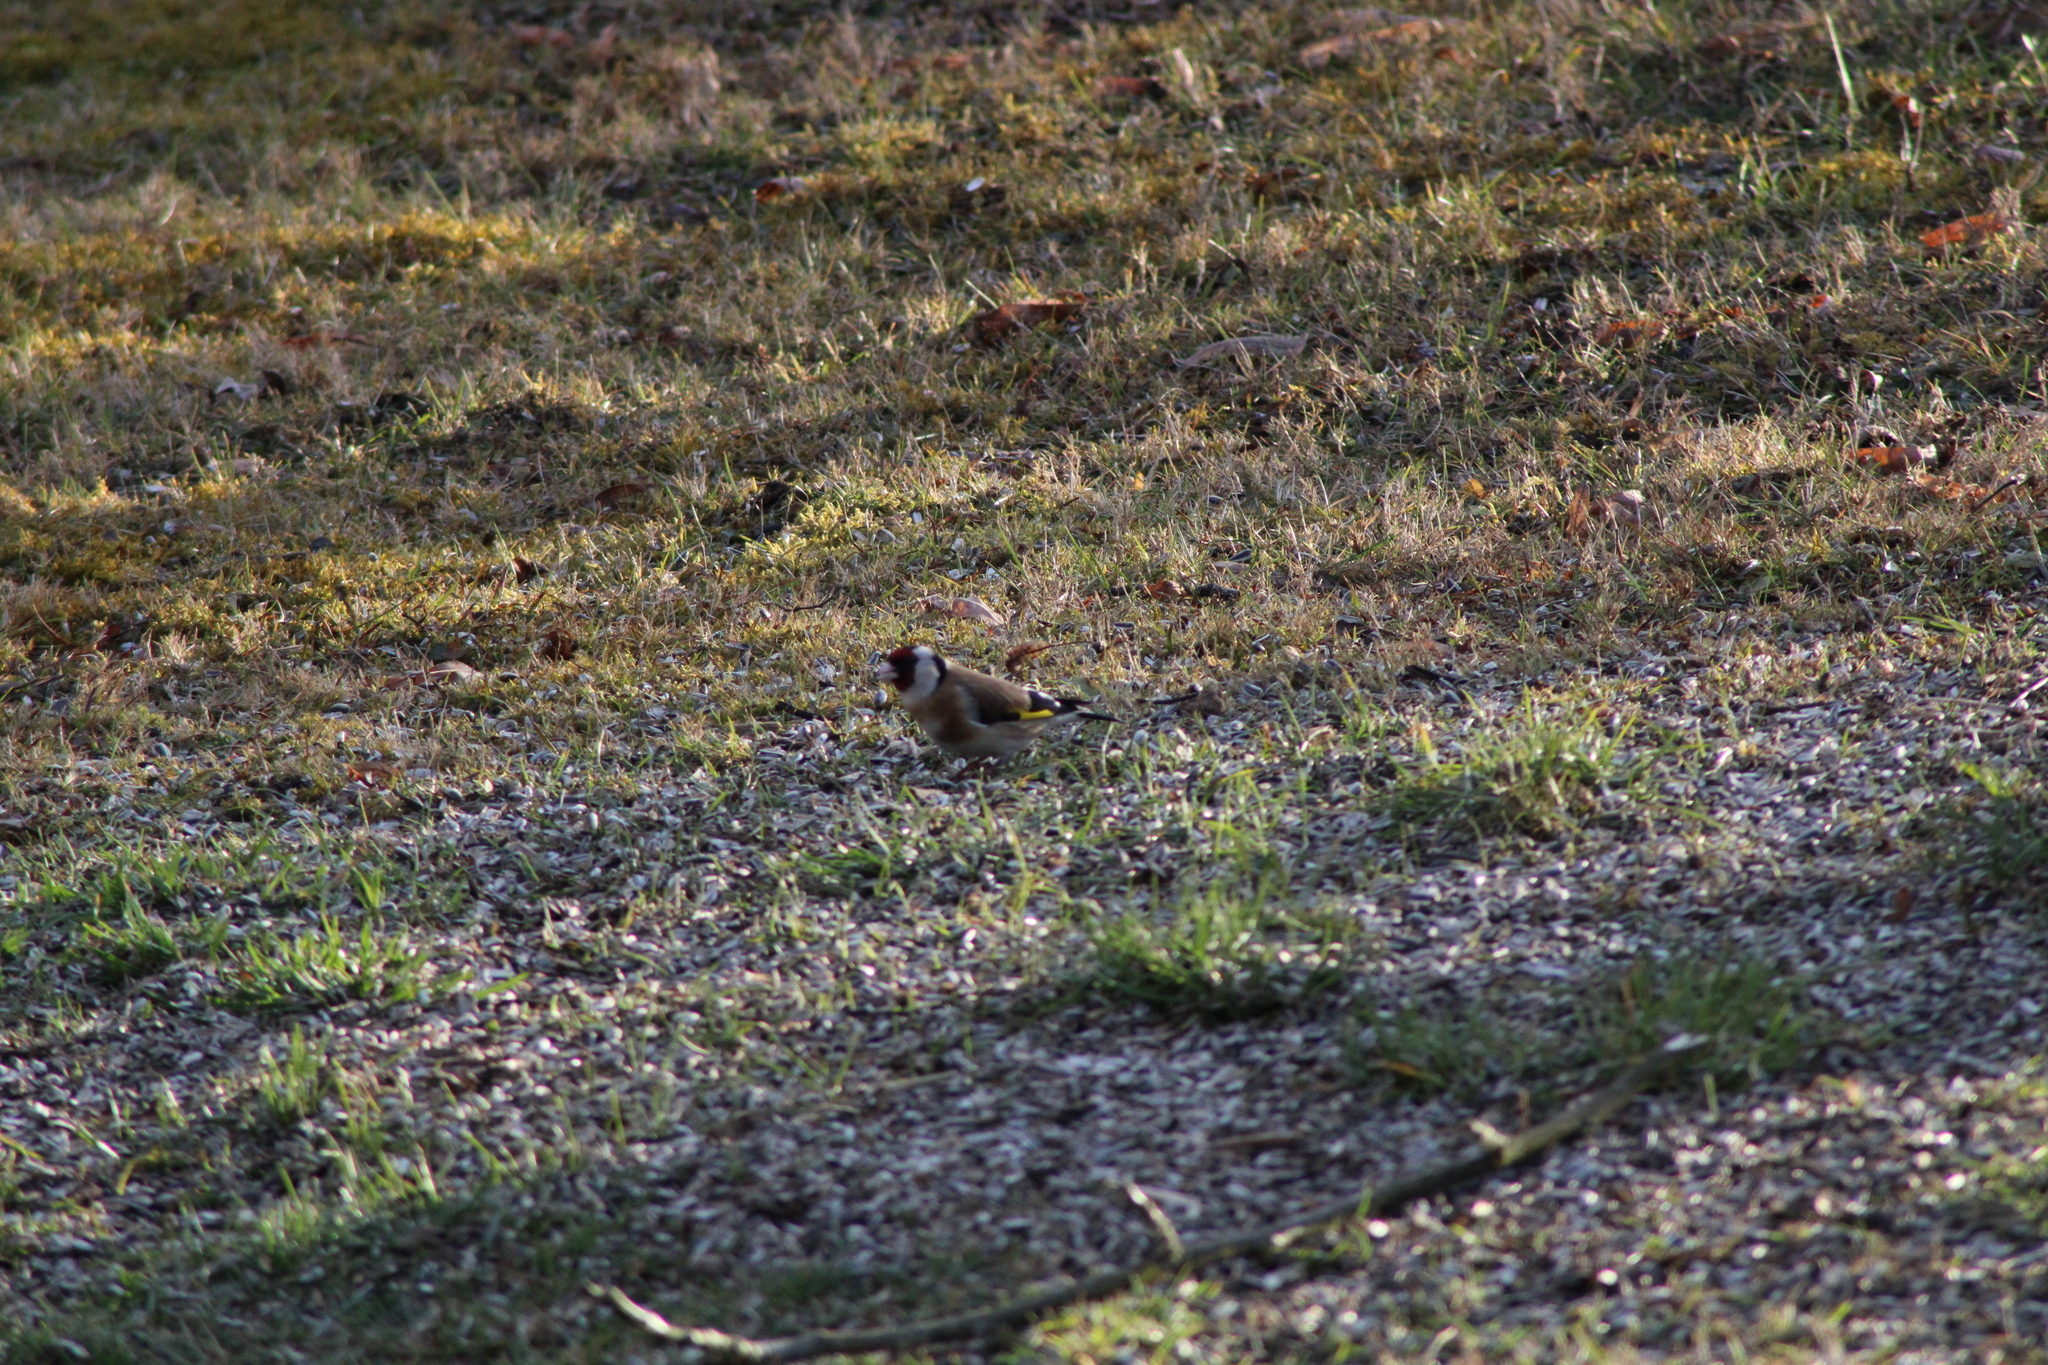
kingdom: Animalia
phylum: Chordata
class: Aves
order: Passeriformes
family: Fringillidae
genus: Carduelis
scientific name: Carduelis carduelis
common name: European goldfinch
